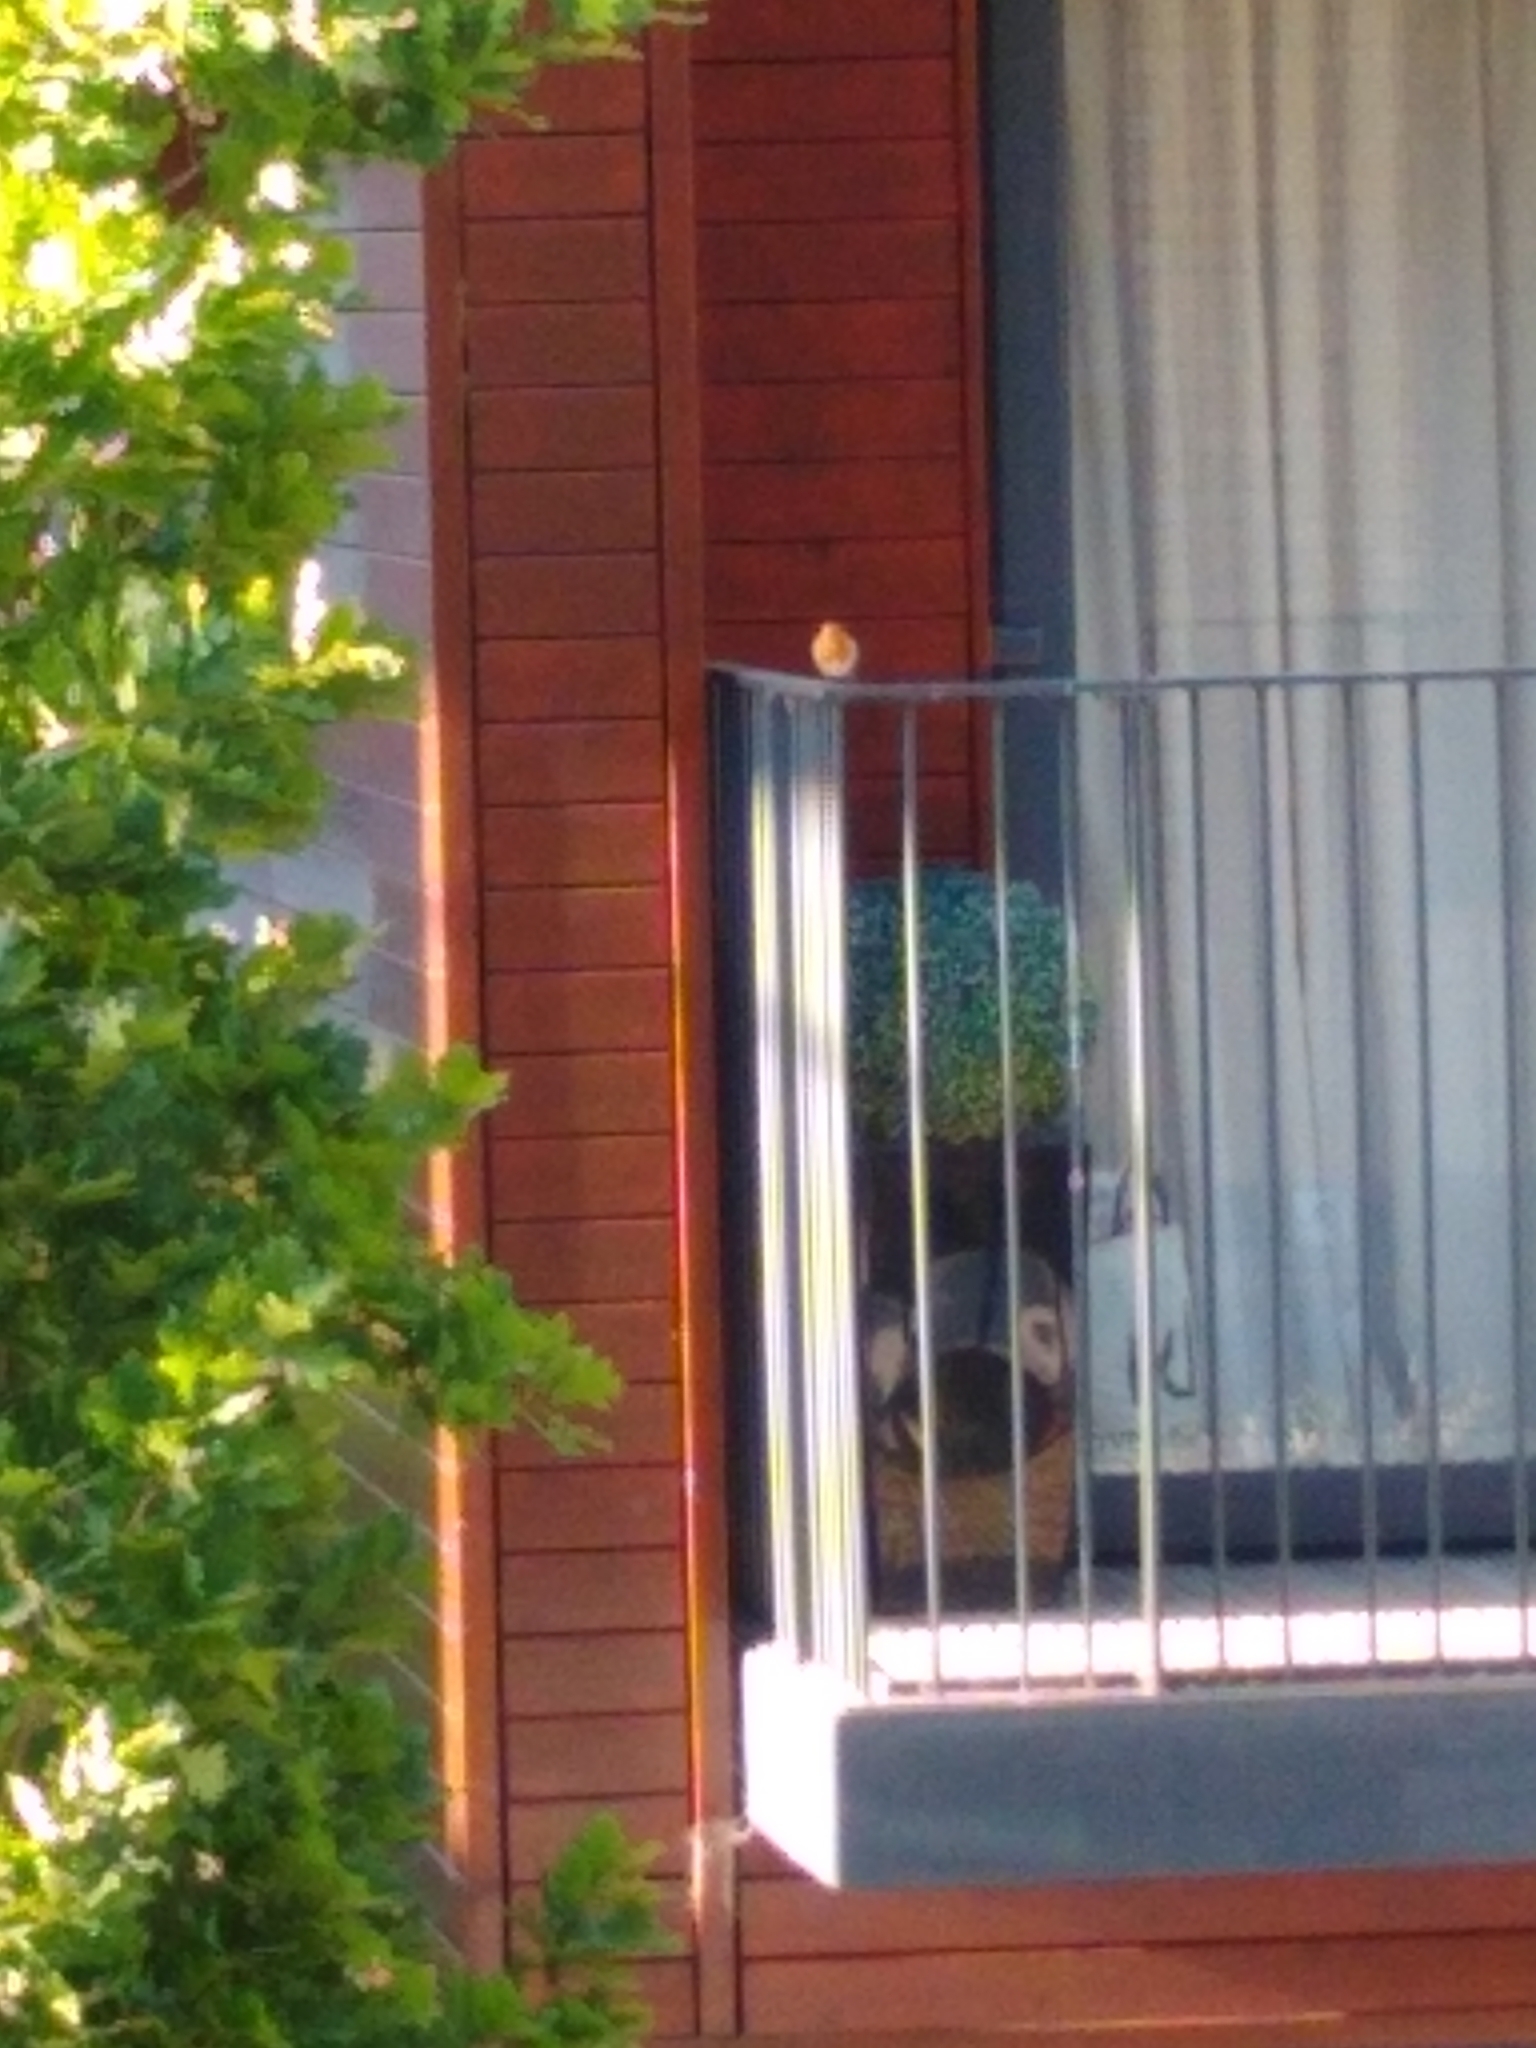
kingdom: Animalia
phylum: Chordata
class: Aves
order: Passeriformes
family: Muscicapidae
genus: Erithacus
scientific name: Erithacus rubecula
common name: European robin
